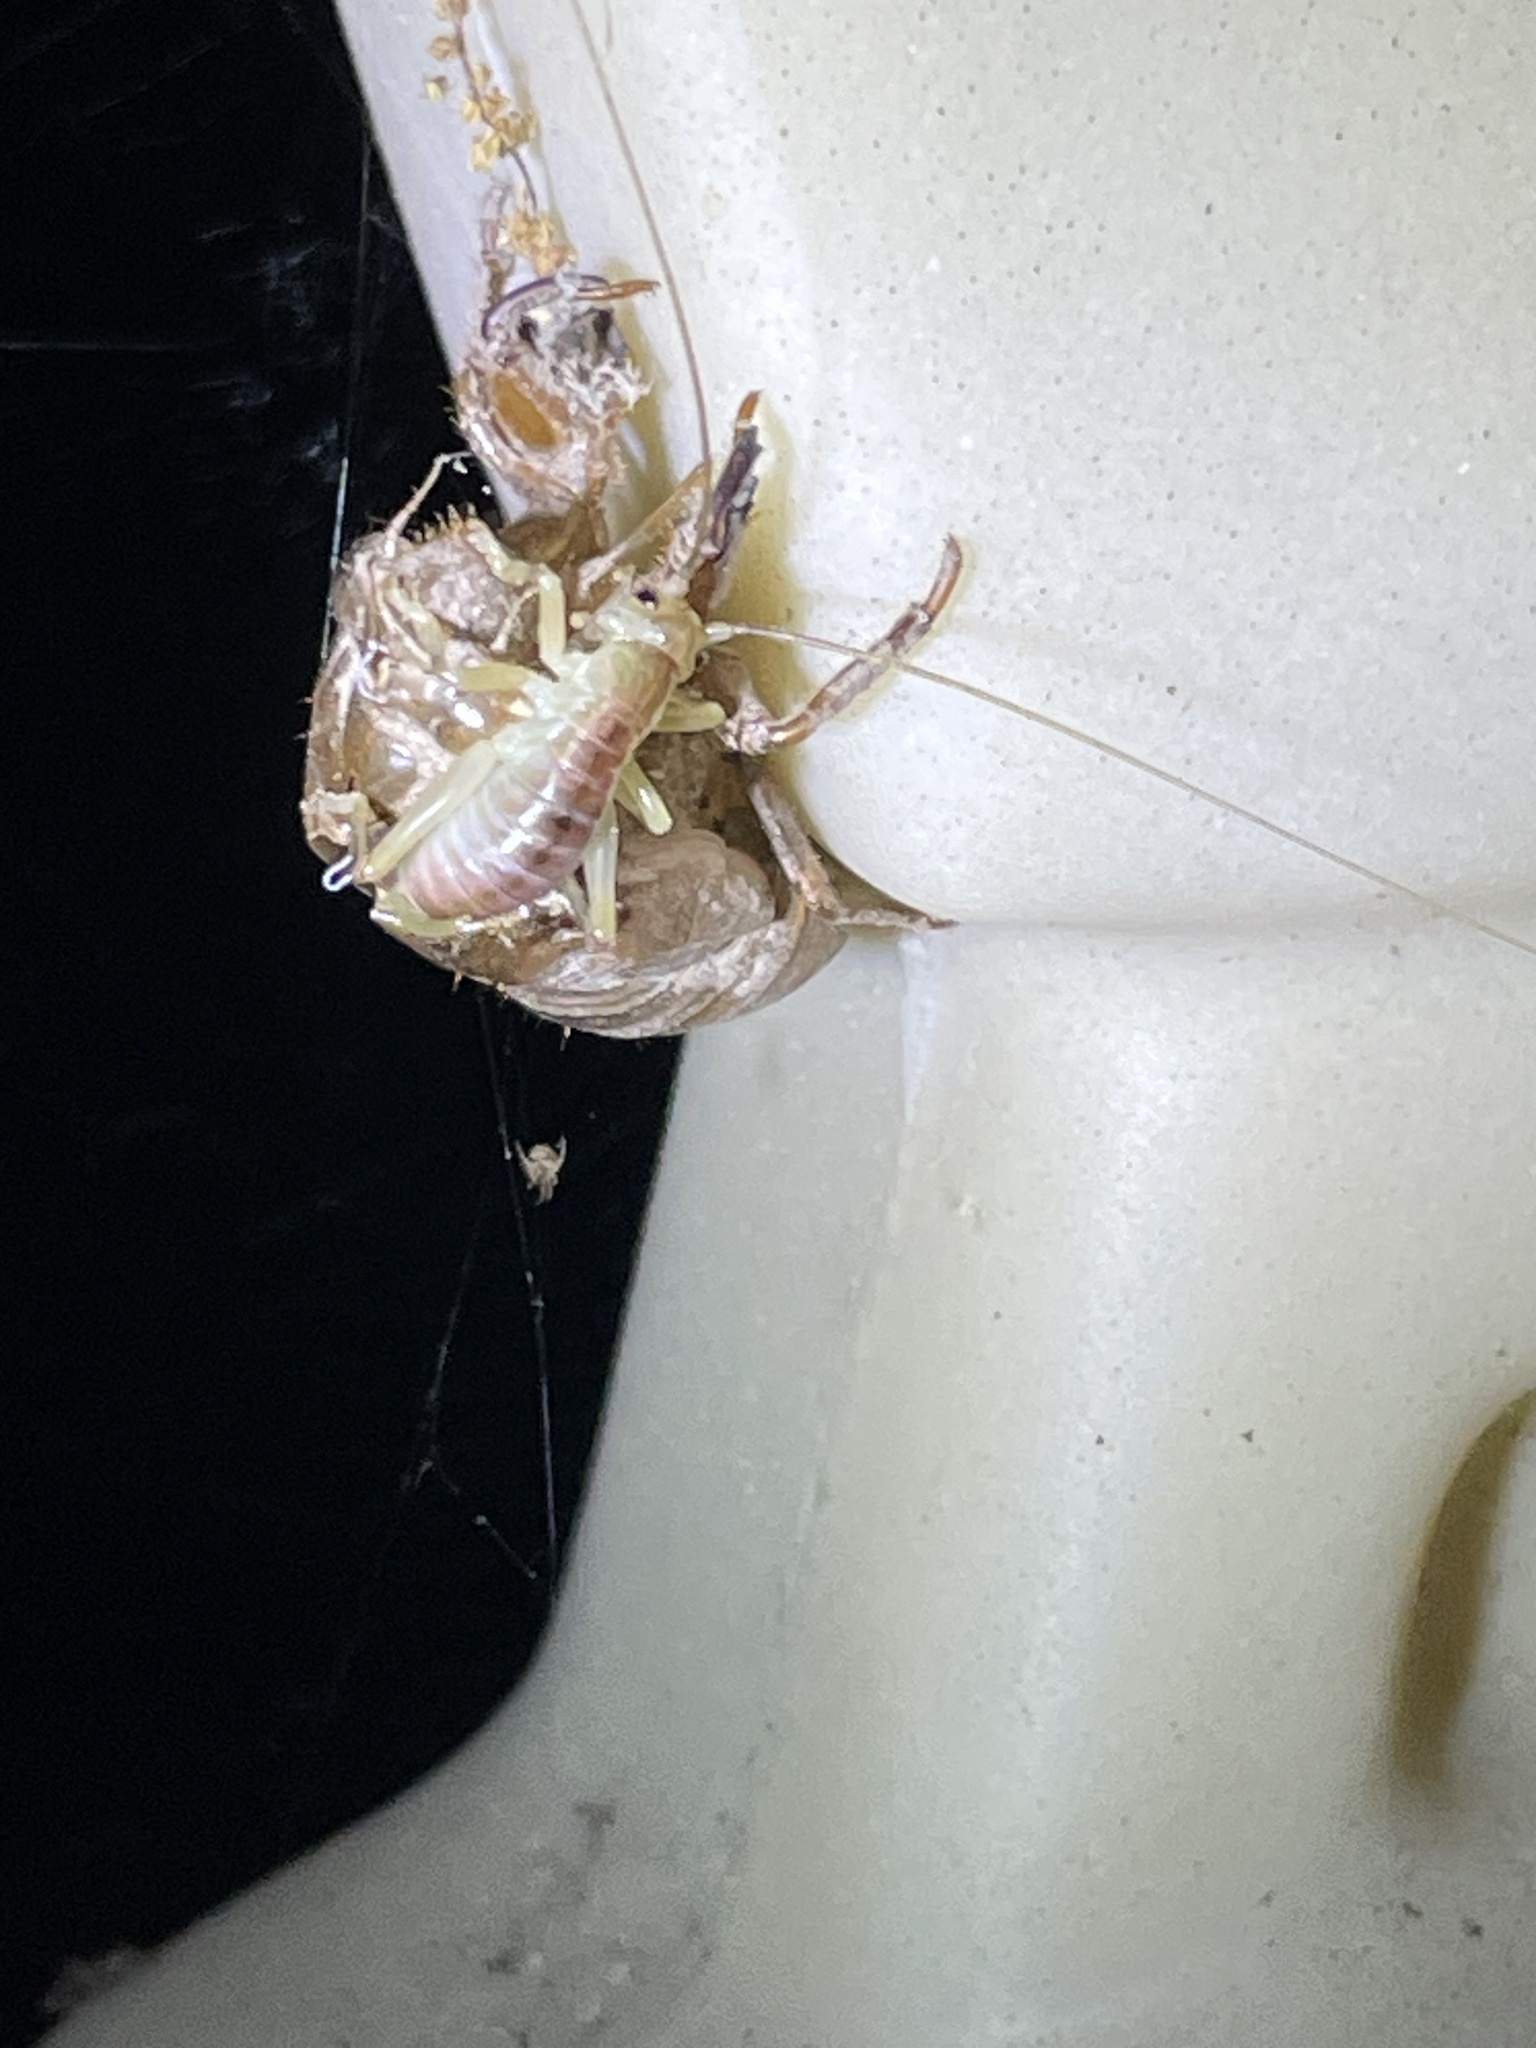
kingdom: Animalia
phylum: Arthropoda
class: Insecta
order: Orthoptera
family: Gryllacrididae
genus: Camptonotus
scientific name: Camptonotus carolinensis
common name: Carolina leaf-roller
